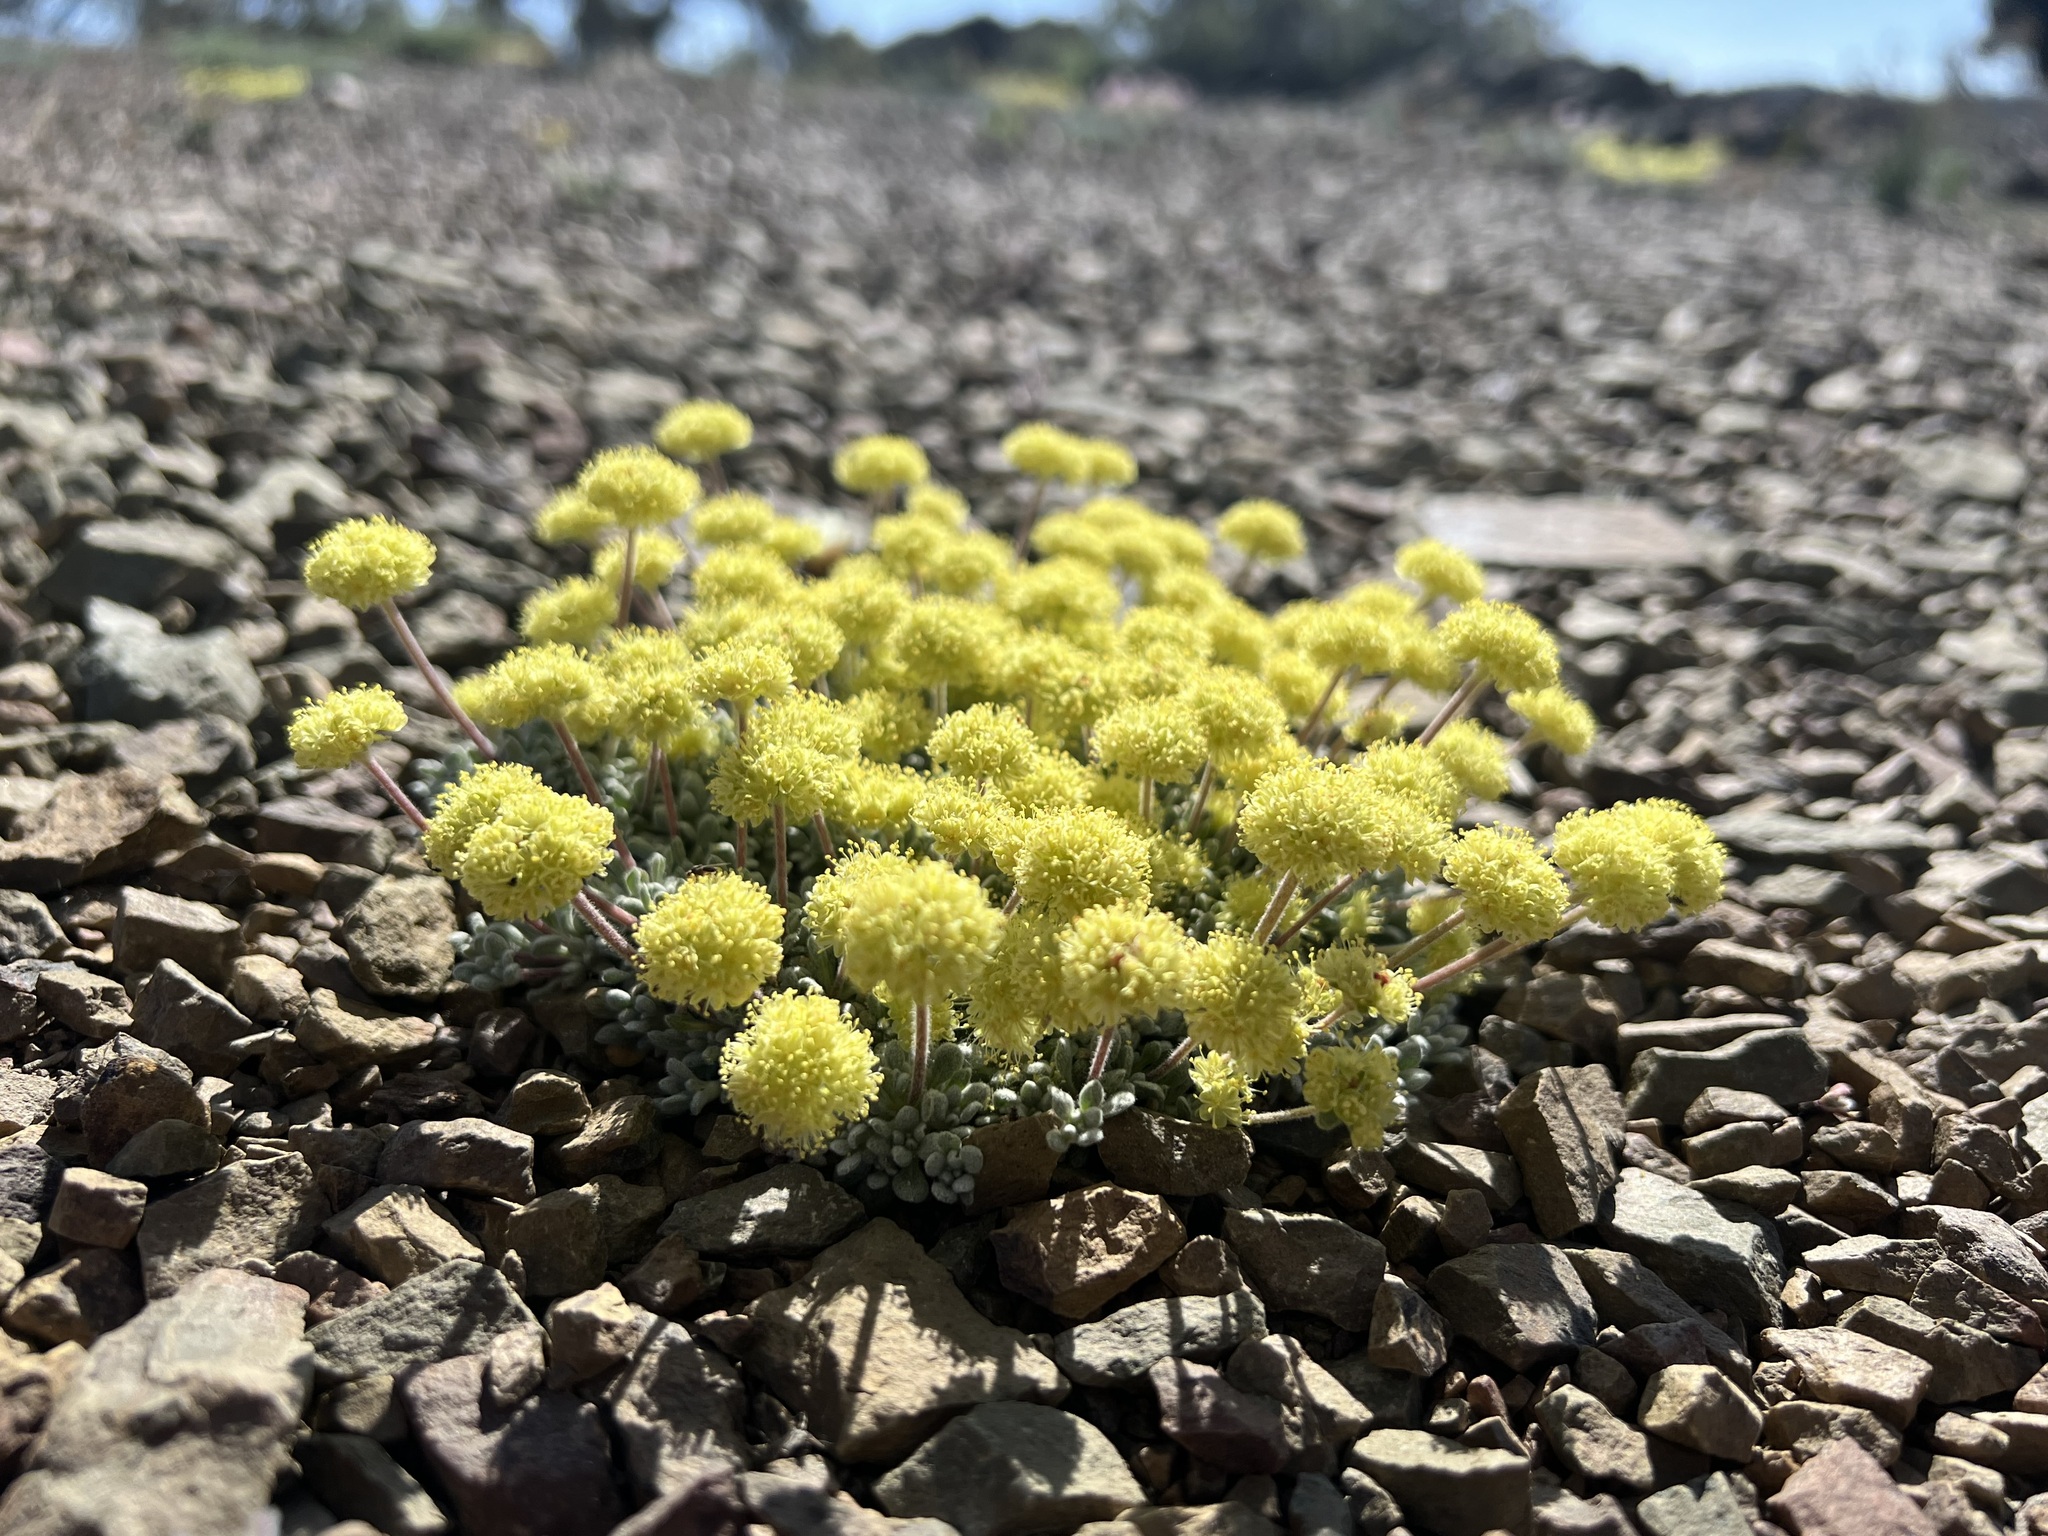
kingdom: Plantae
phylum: Tracheophyta
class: Magnoliopsida
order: Caryophyllales
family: Polygonaceae
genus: Eriogonum
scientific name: Eriogonum caespitosum
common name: Matted wild buckwheat
